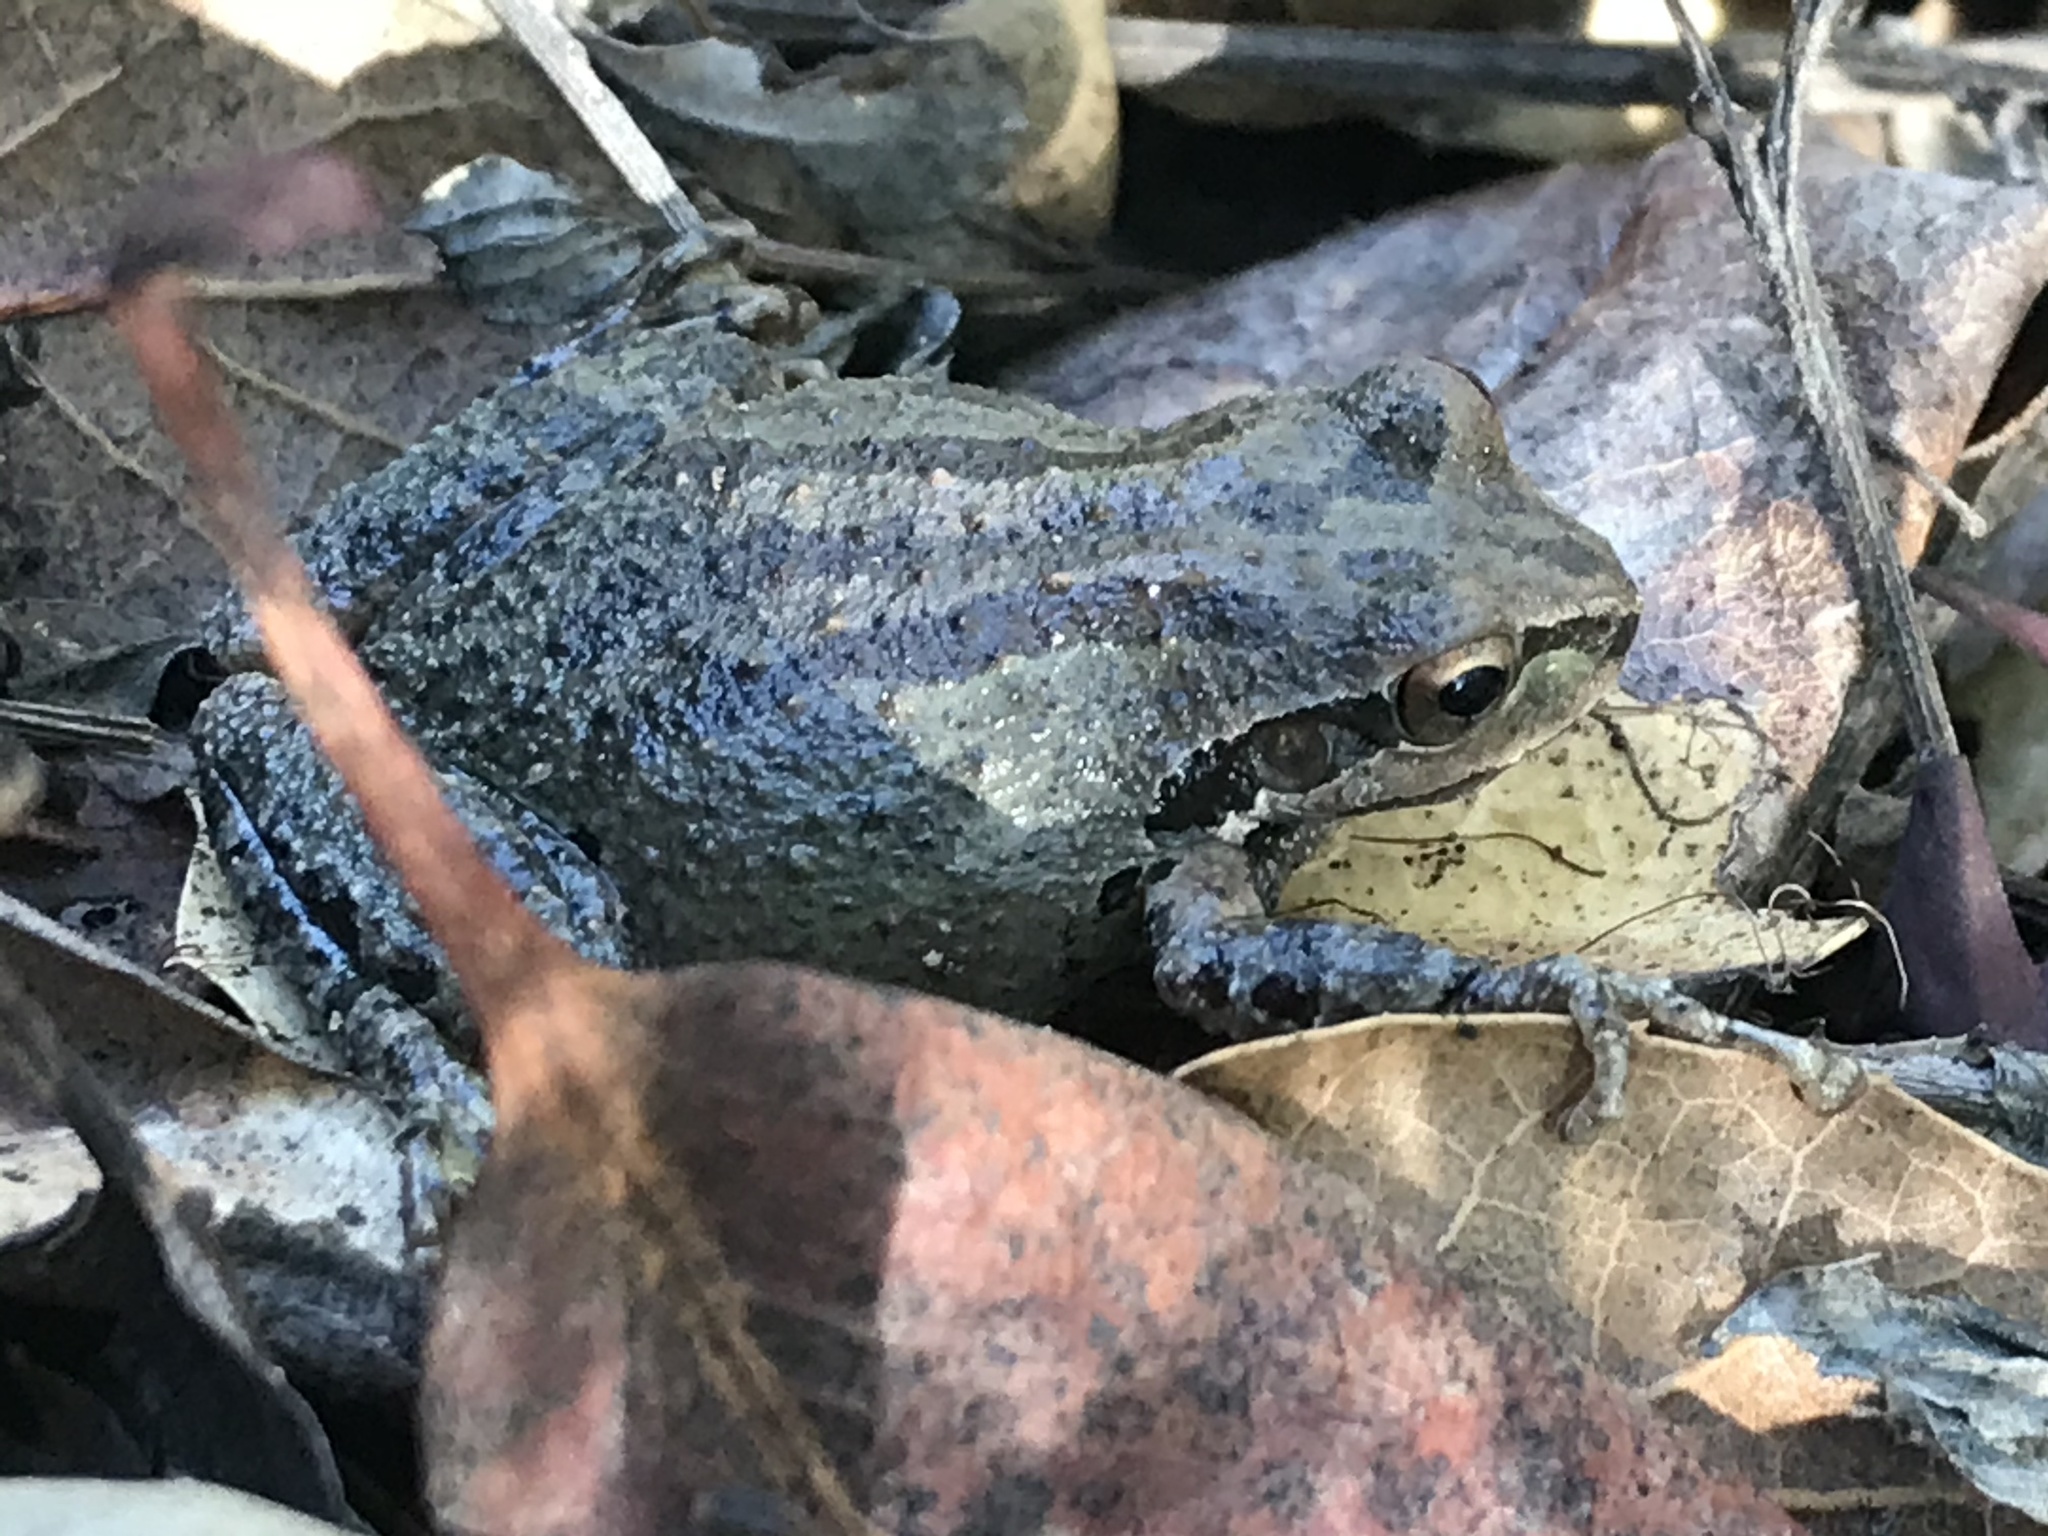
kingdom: Animalia
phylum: Chordata
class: Amphibia
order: Anura
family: Hylidae
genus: Pseudacris
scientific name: Pseudacris regilla
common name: Pacific chorus frog
